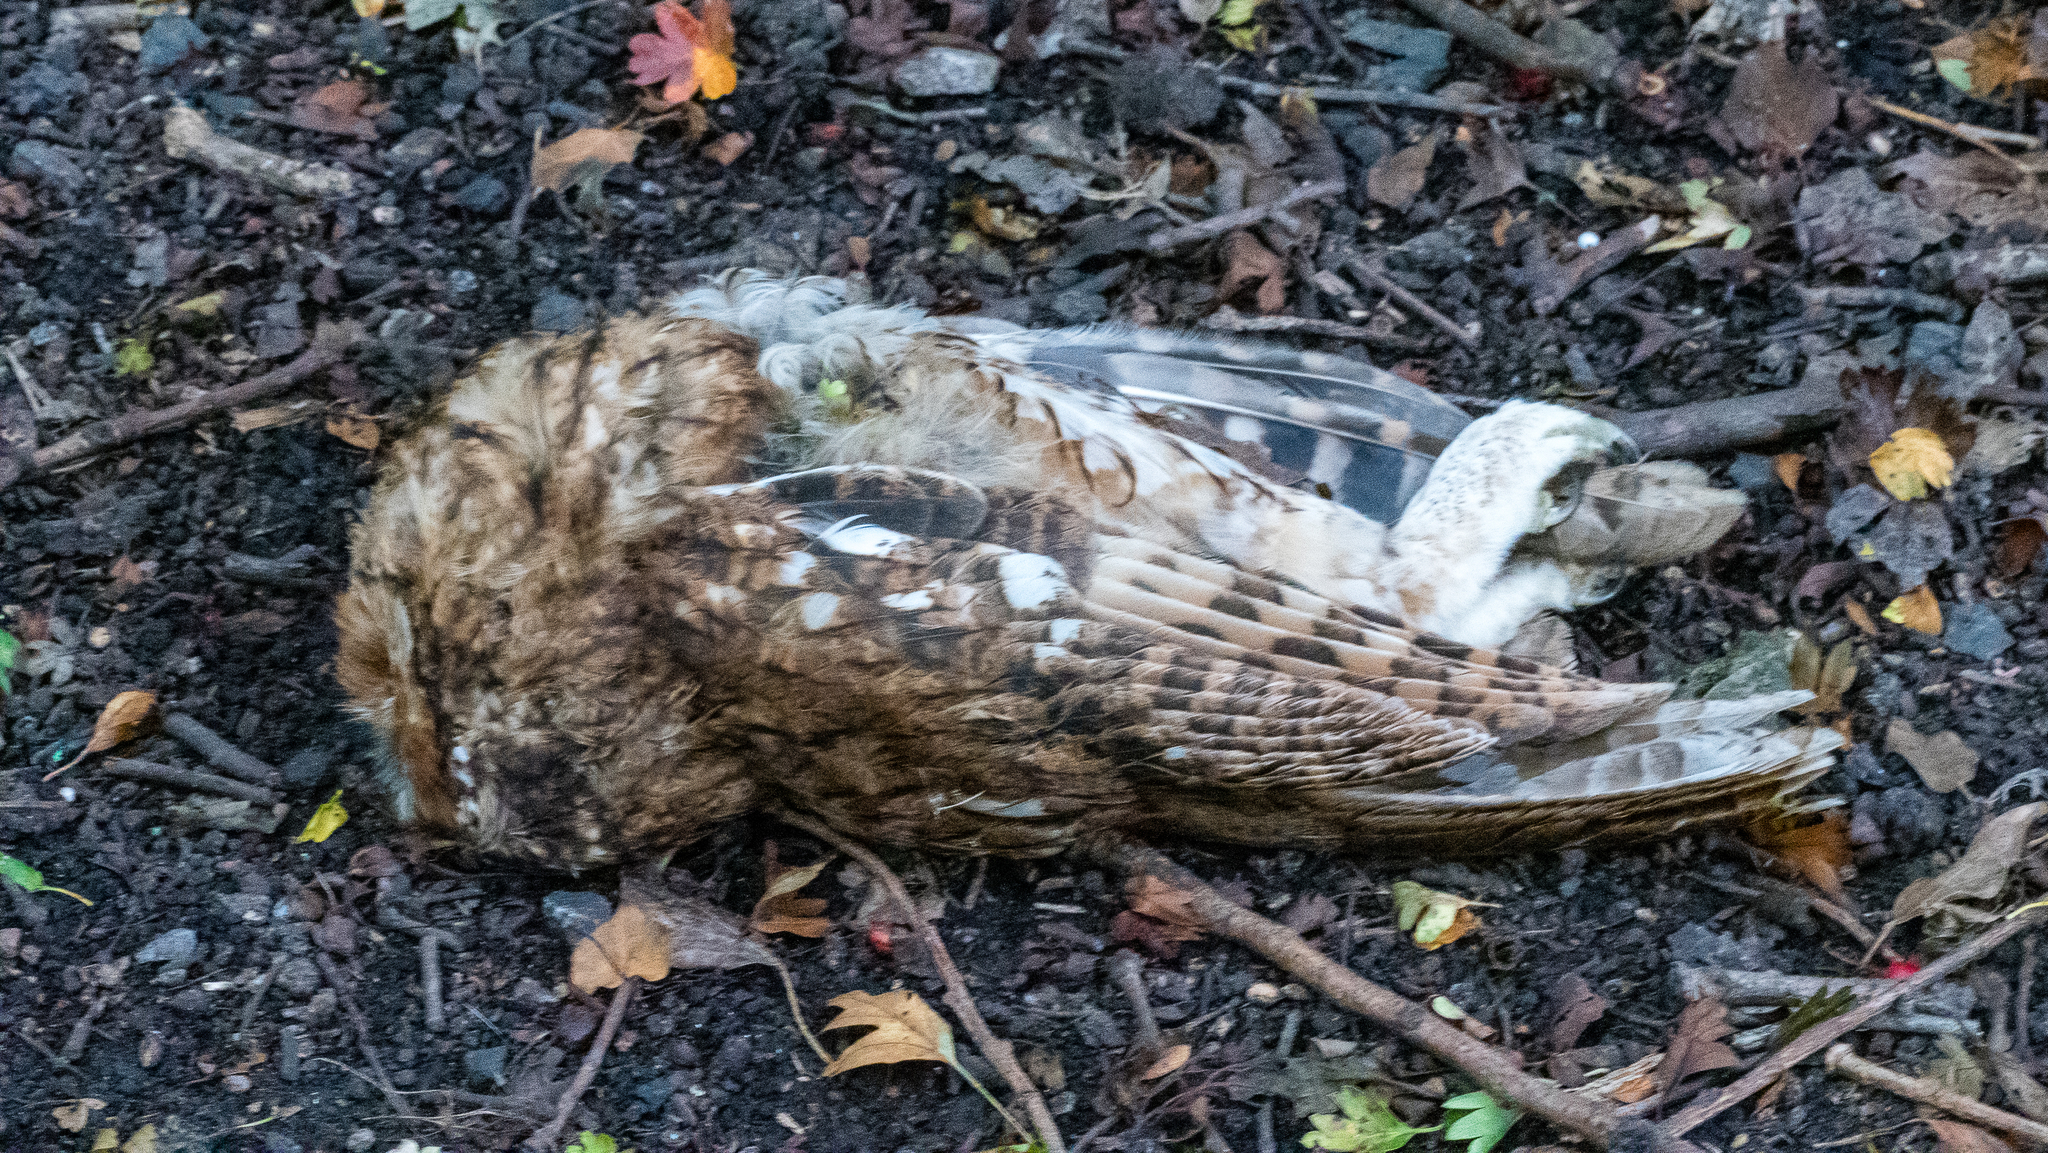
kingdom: Animalia
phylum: Chordata
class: Aves
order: Strigiformes
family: Strigidae
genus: Strix
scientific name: Strix aluco
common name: Tawny owl
